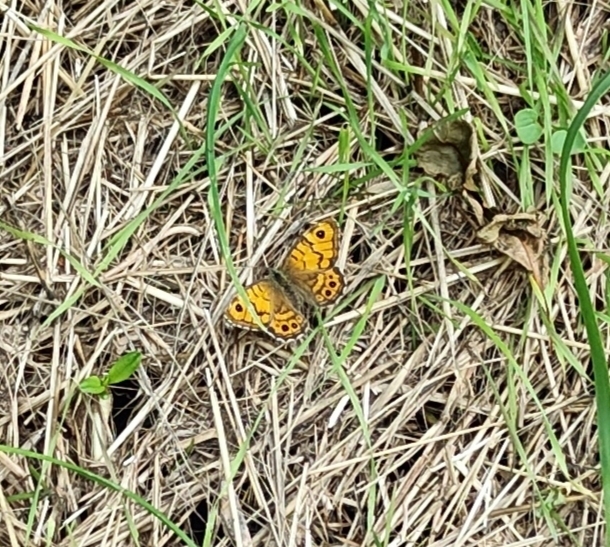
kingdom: Animalia
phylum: Arthropoda
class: Insecta
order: Lepidoptera
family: Nymphalidae
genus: Pararge
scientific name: Pararge Lasiommata megera
